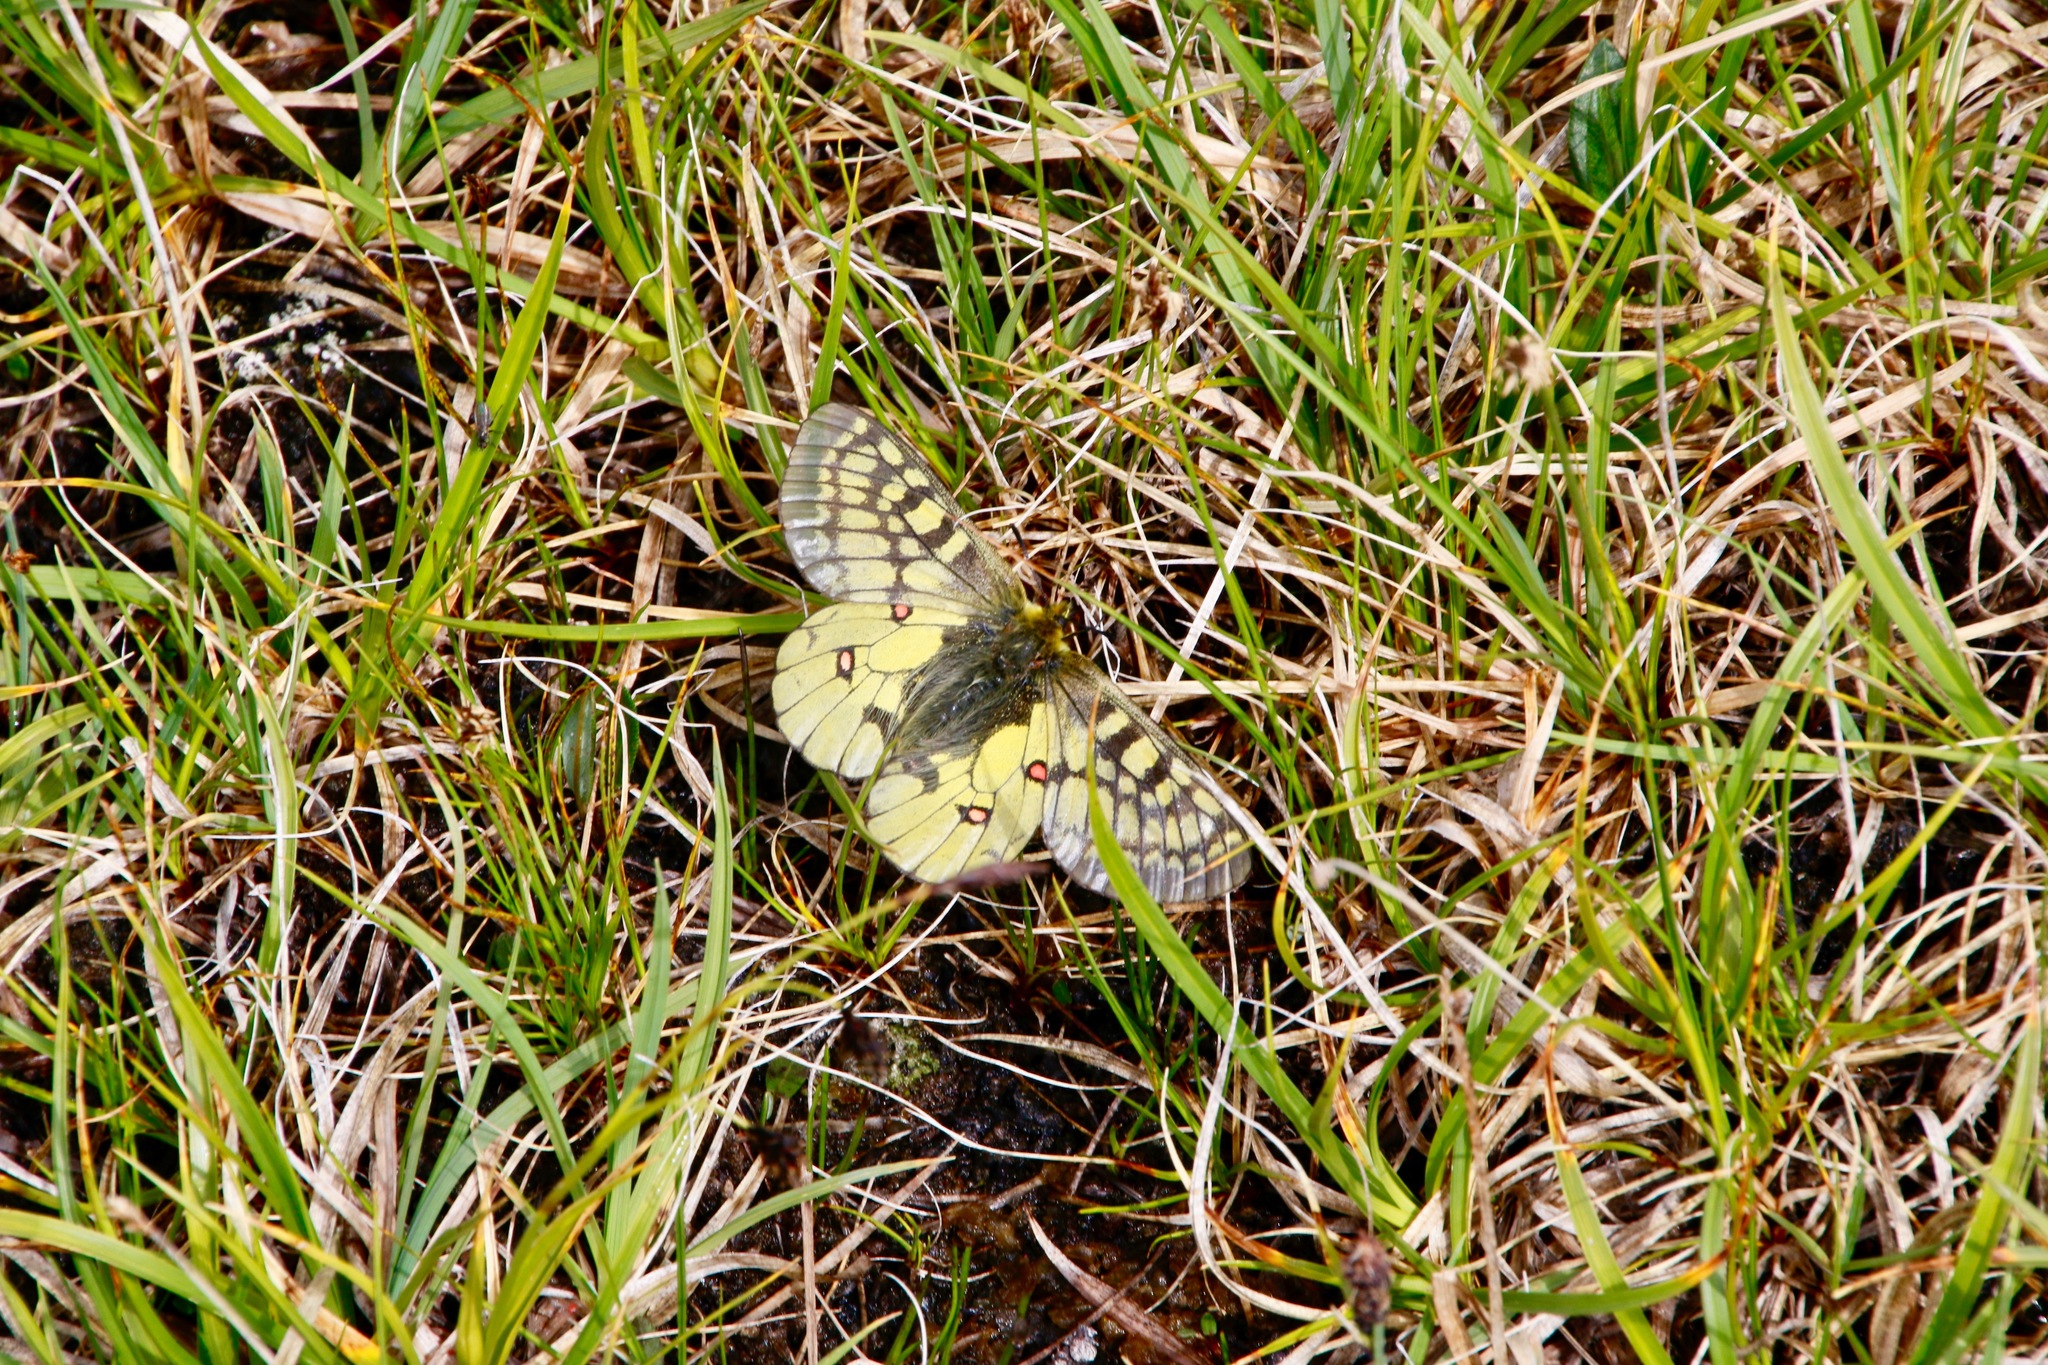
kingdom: Animalia
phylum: Arthropoda
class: Insecta
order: Lepidoptera
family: Papilionidae
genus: Parnassius
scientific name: Parnassius eversmanni
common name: Eversmann's parnassian
